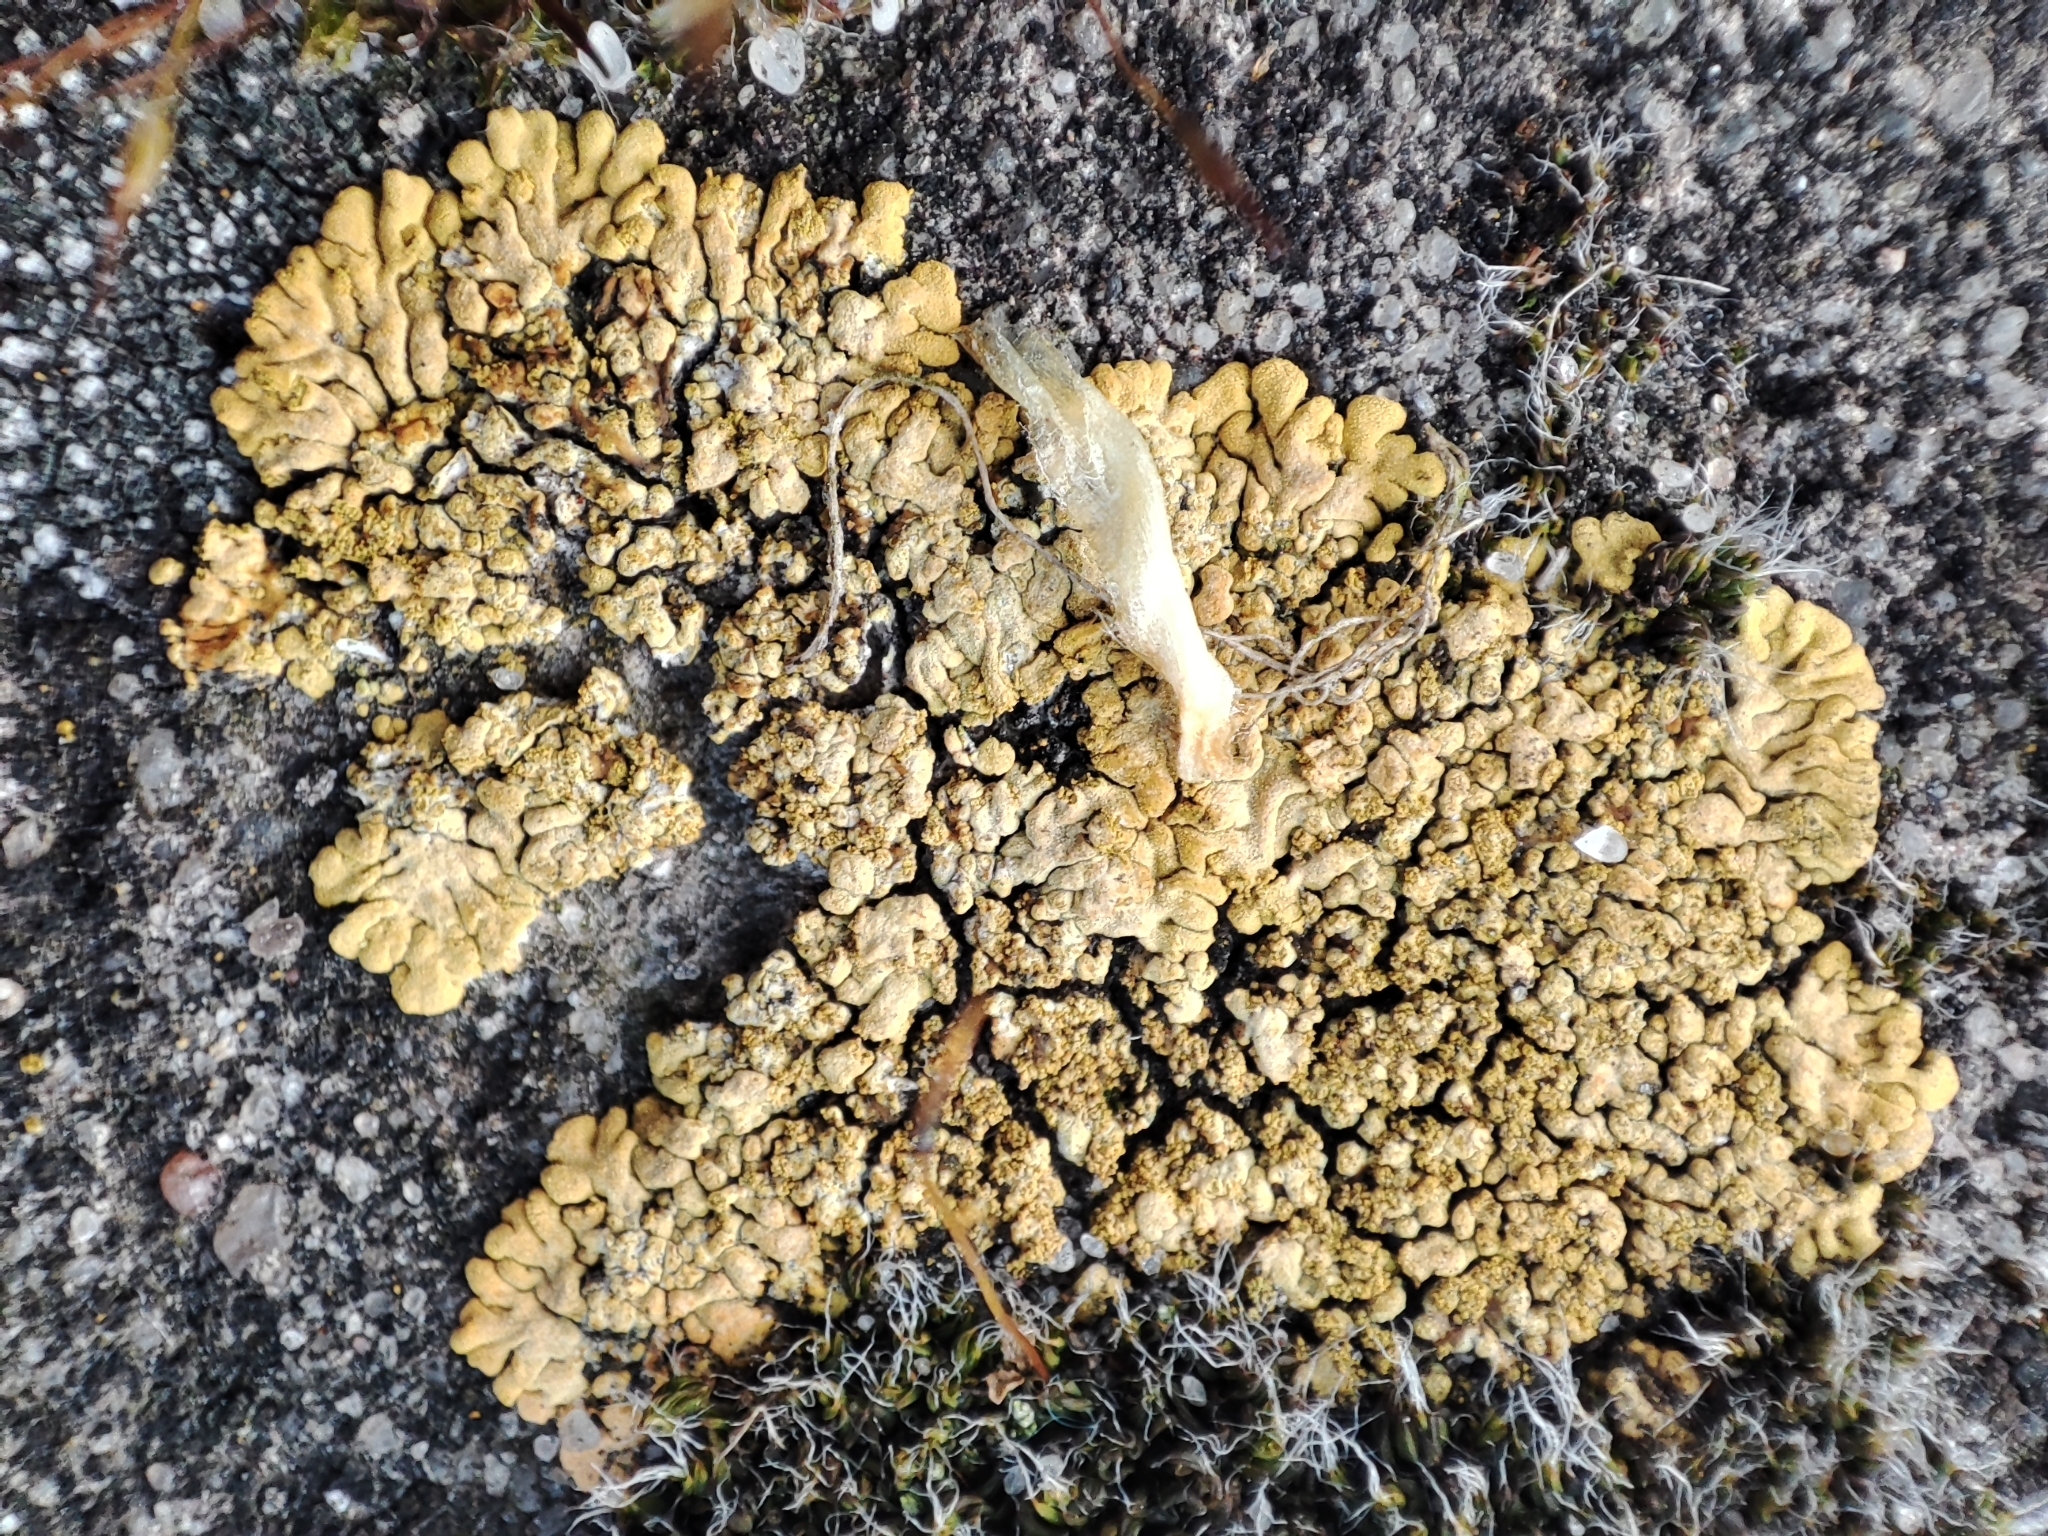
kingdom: Fungi
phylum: Ascomycota
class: Lecanoromycetes
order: Teloschistales
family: Teloschistaceae
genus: Calogaya
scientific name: Calogaya decipiens
